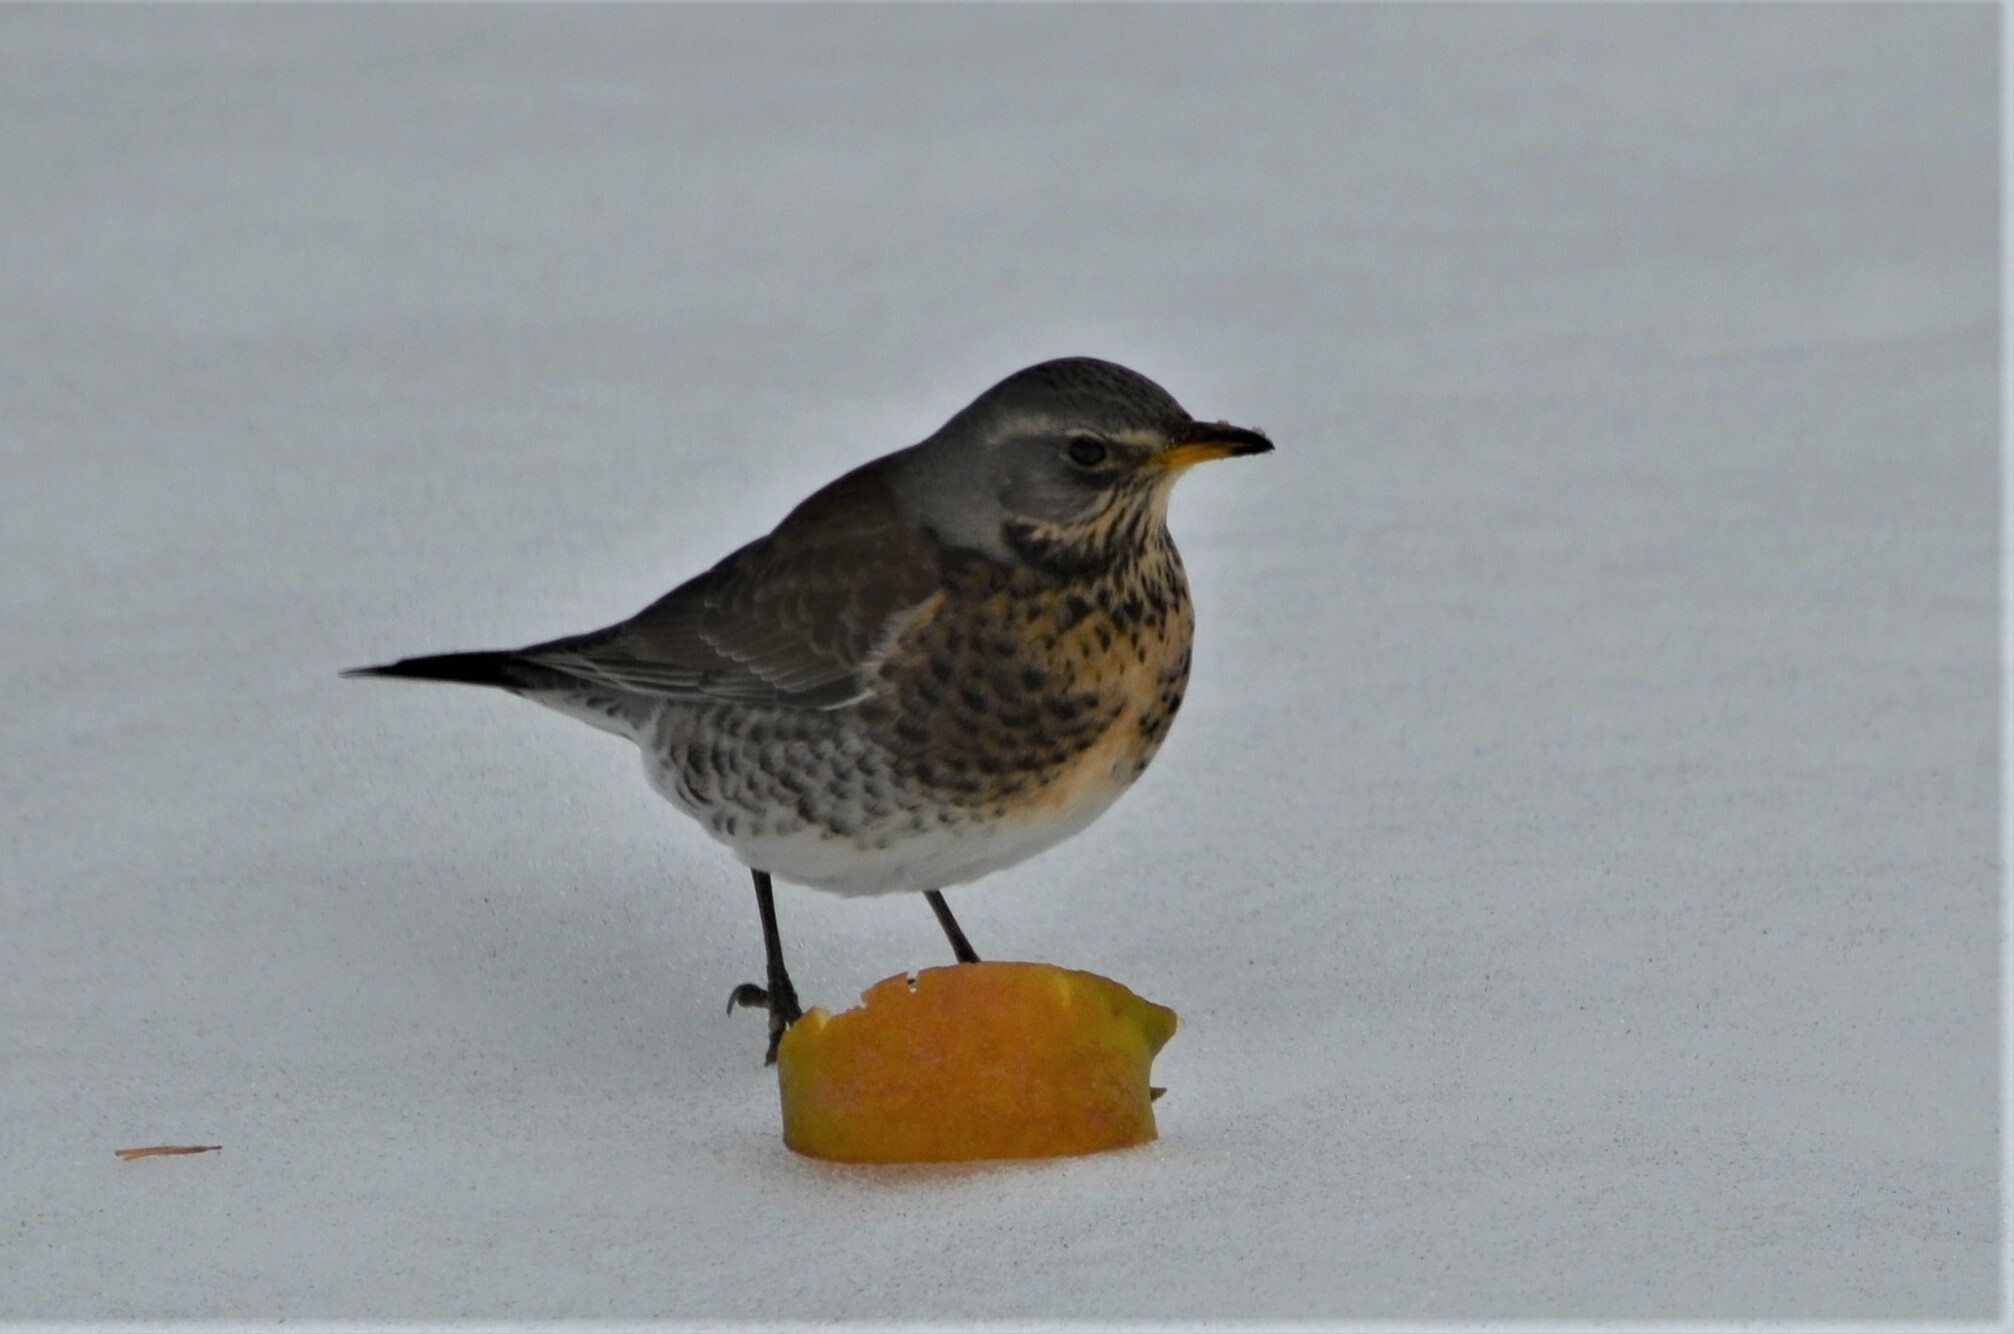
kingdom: Animalia
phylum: Chordata
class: Aves
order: Passeriformes
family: Turdidae
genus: Turdus
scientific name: Turdus pilaris
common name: Fieldfare
